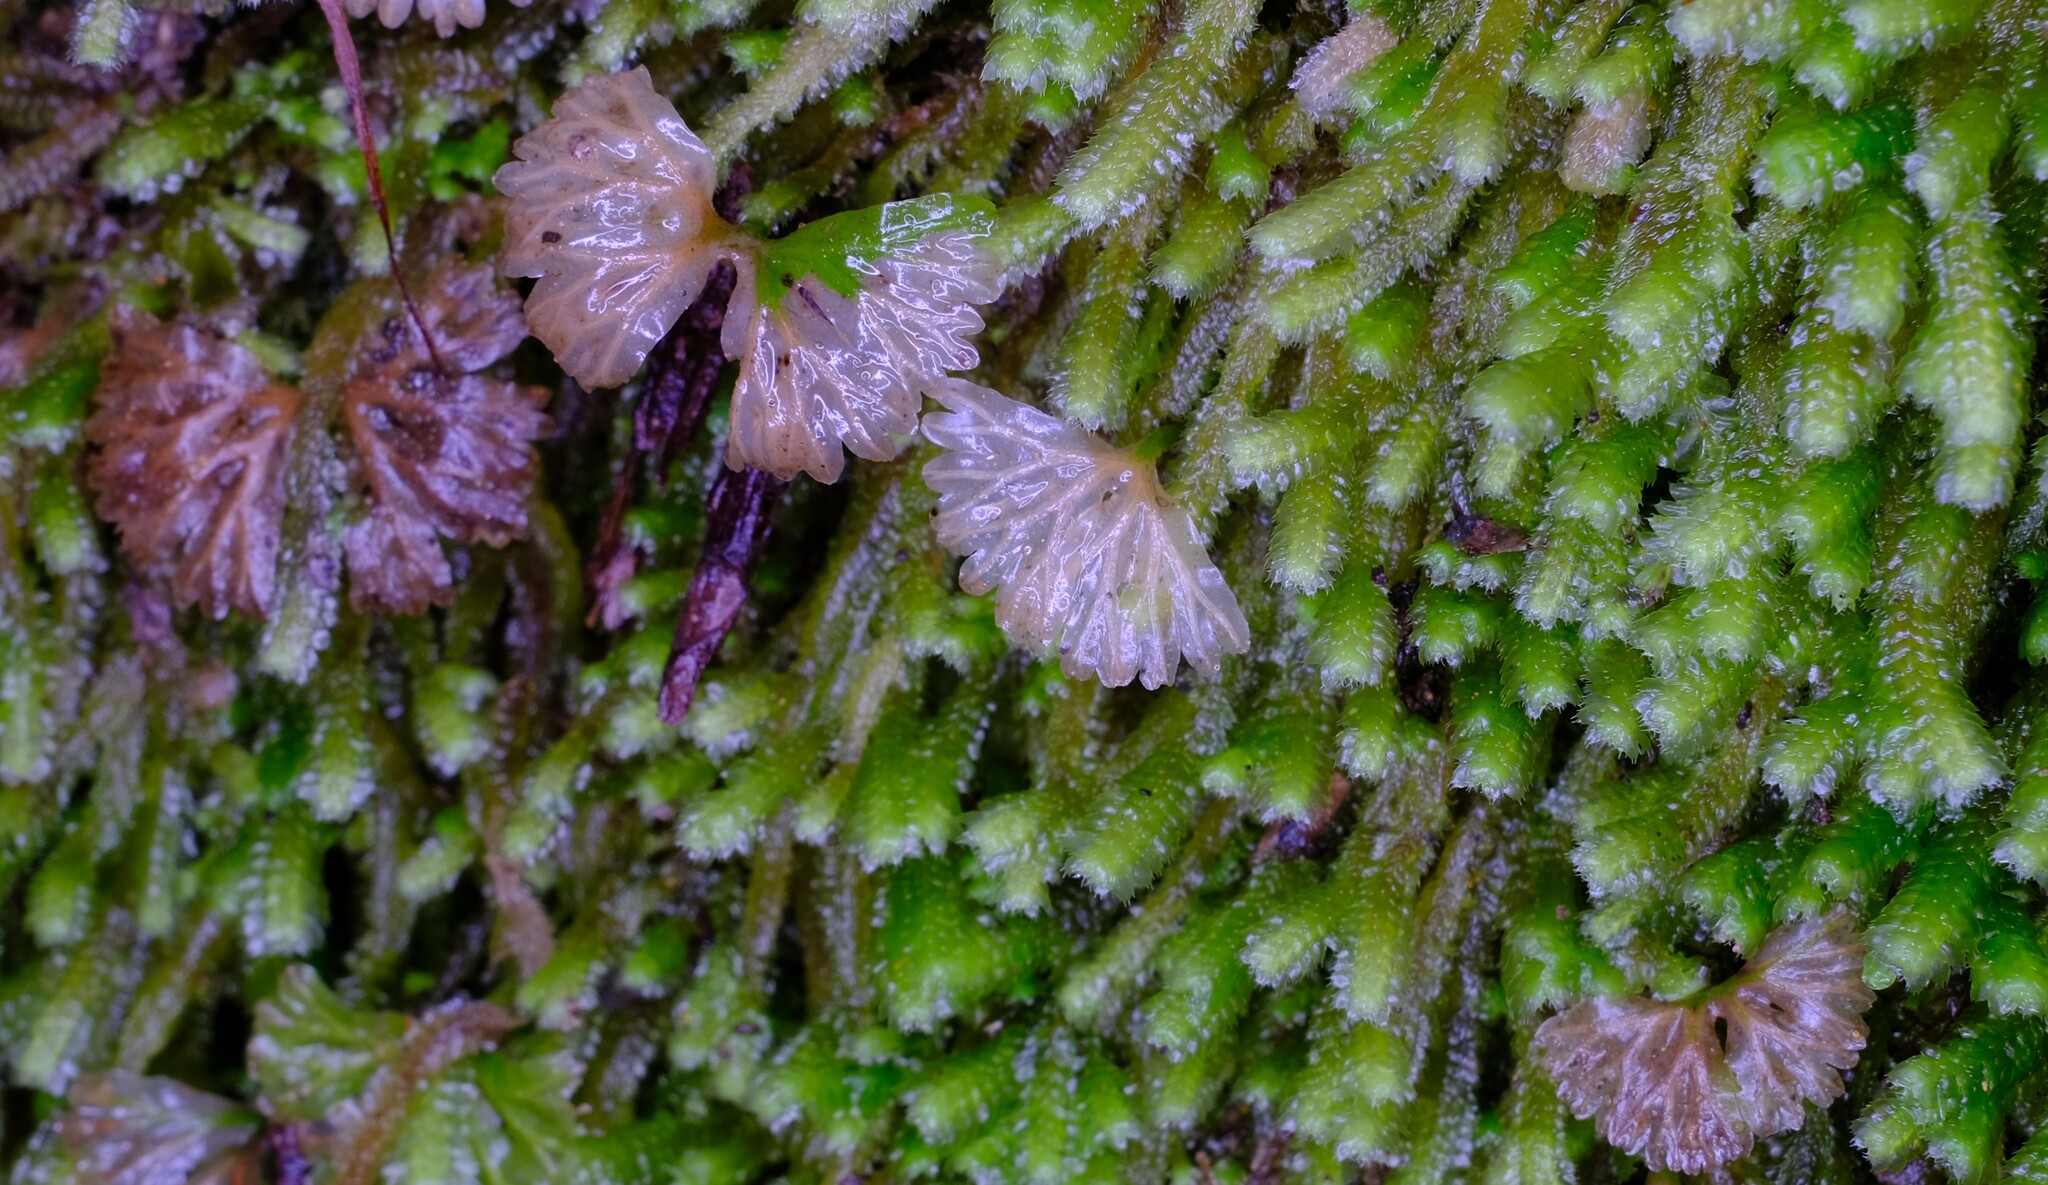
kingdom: Plantae
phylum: Marchantiophyta
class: Jungermanniopsida
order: Pallaviciniales
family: Hymenophytaceae
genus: Hymenophyton
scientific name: Hymenophyton flabellatum
